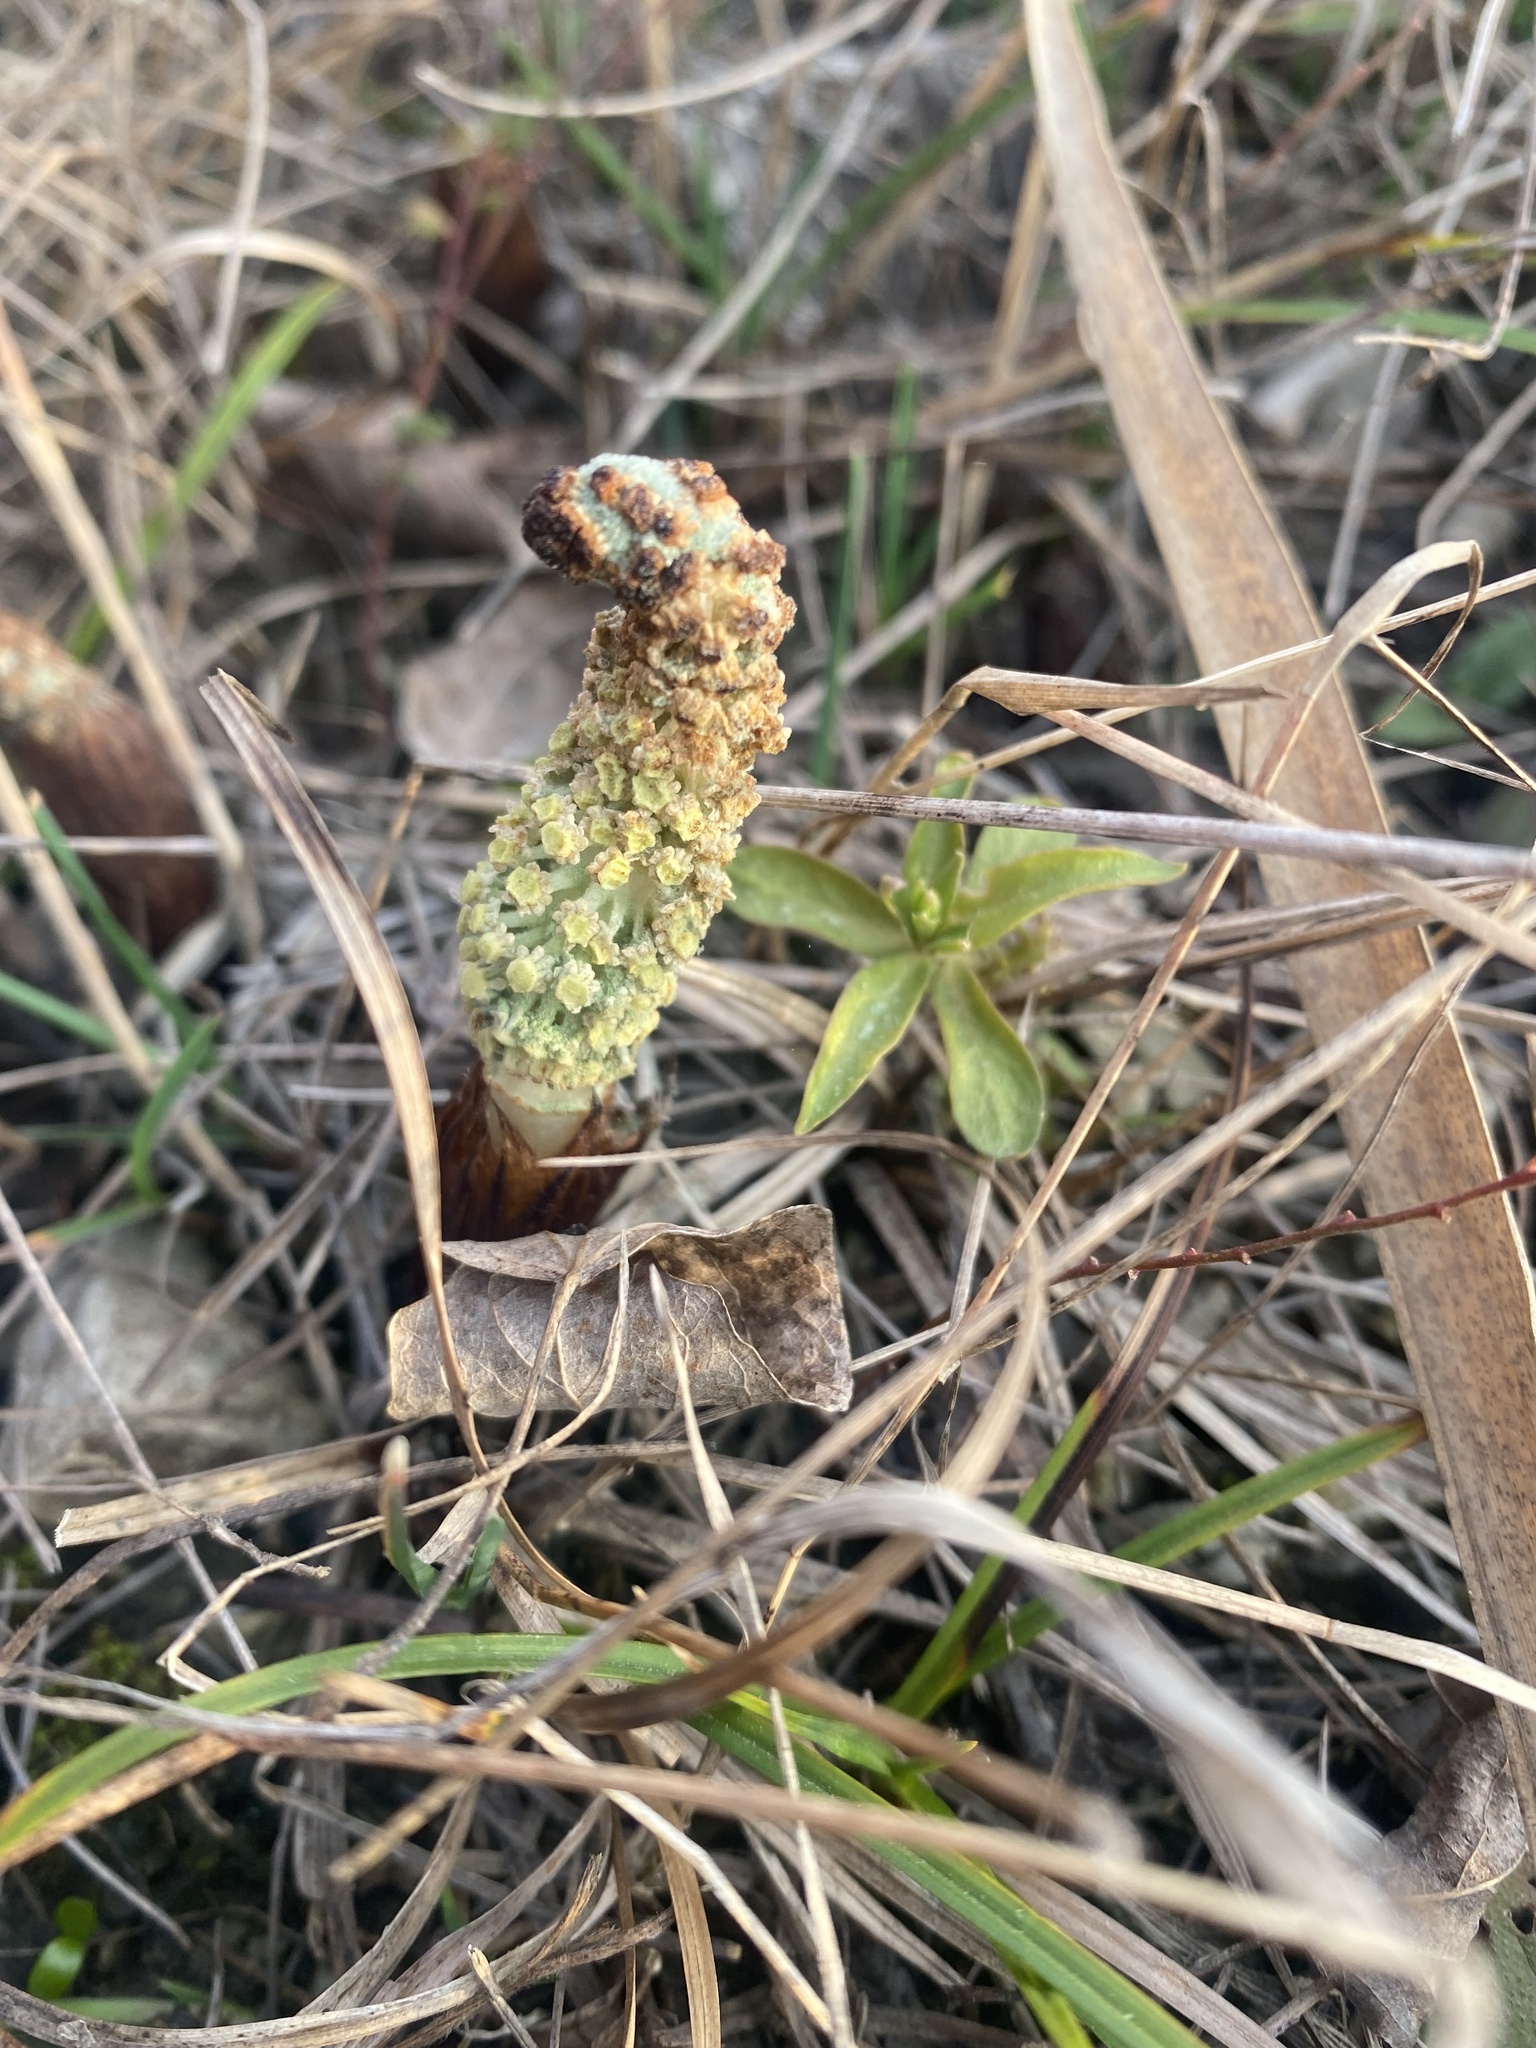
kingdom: Plantae
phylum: Tracheophyta
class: Polypodiopsida
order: Equisetales
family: Equisetaceae
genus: Equisetum
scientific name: Equisetum telmateia
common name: Great horsetail
